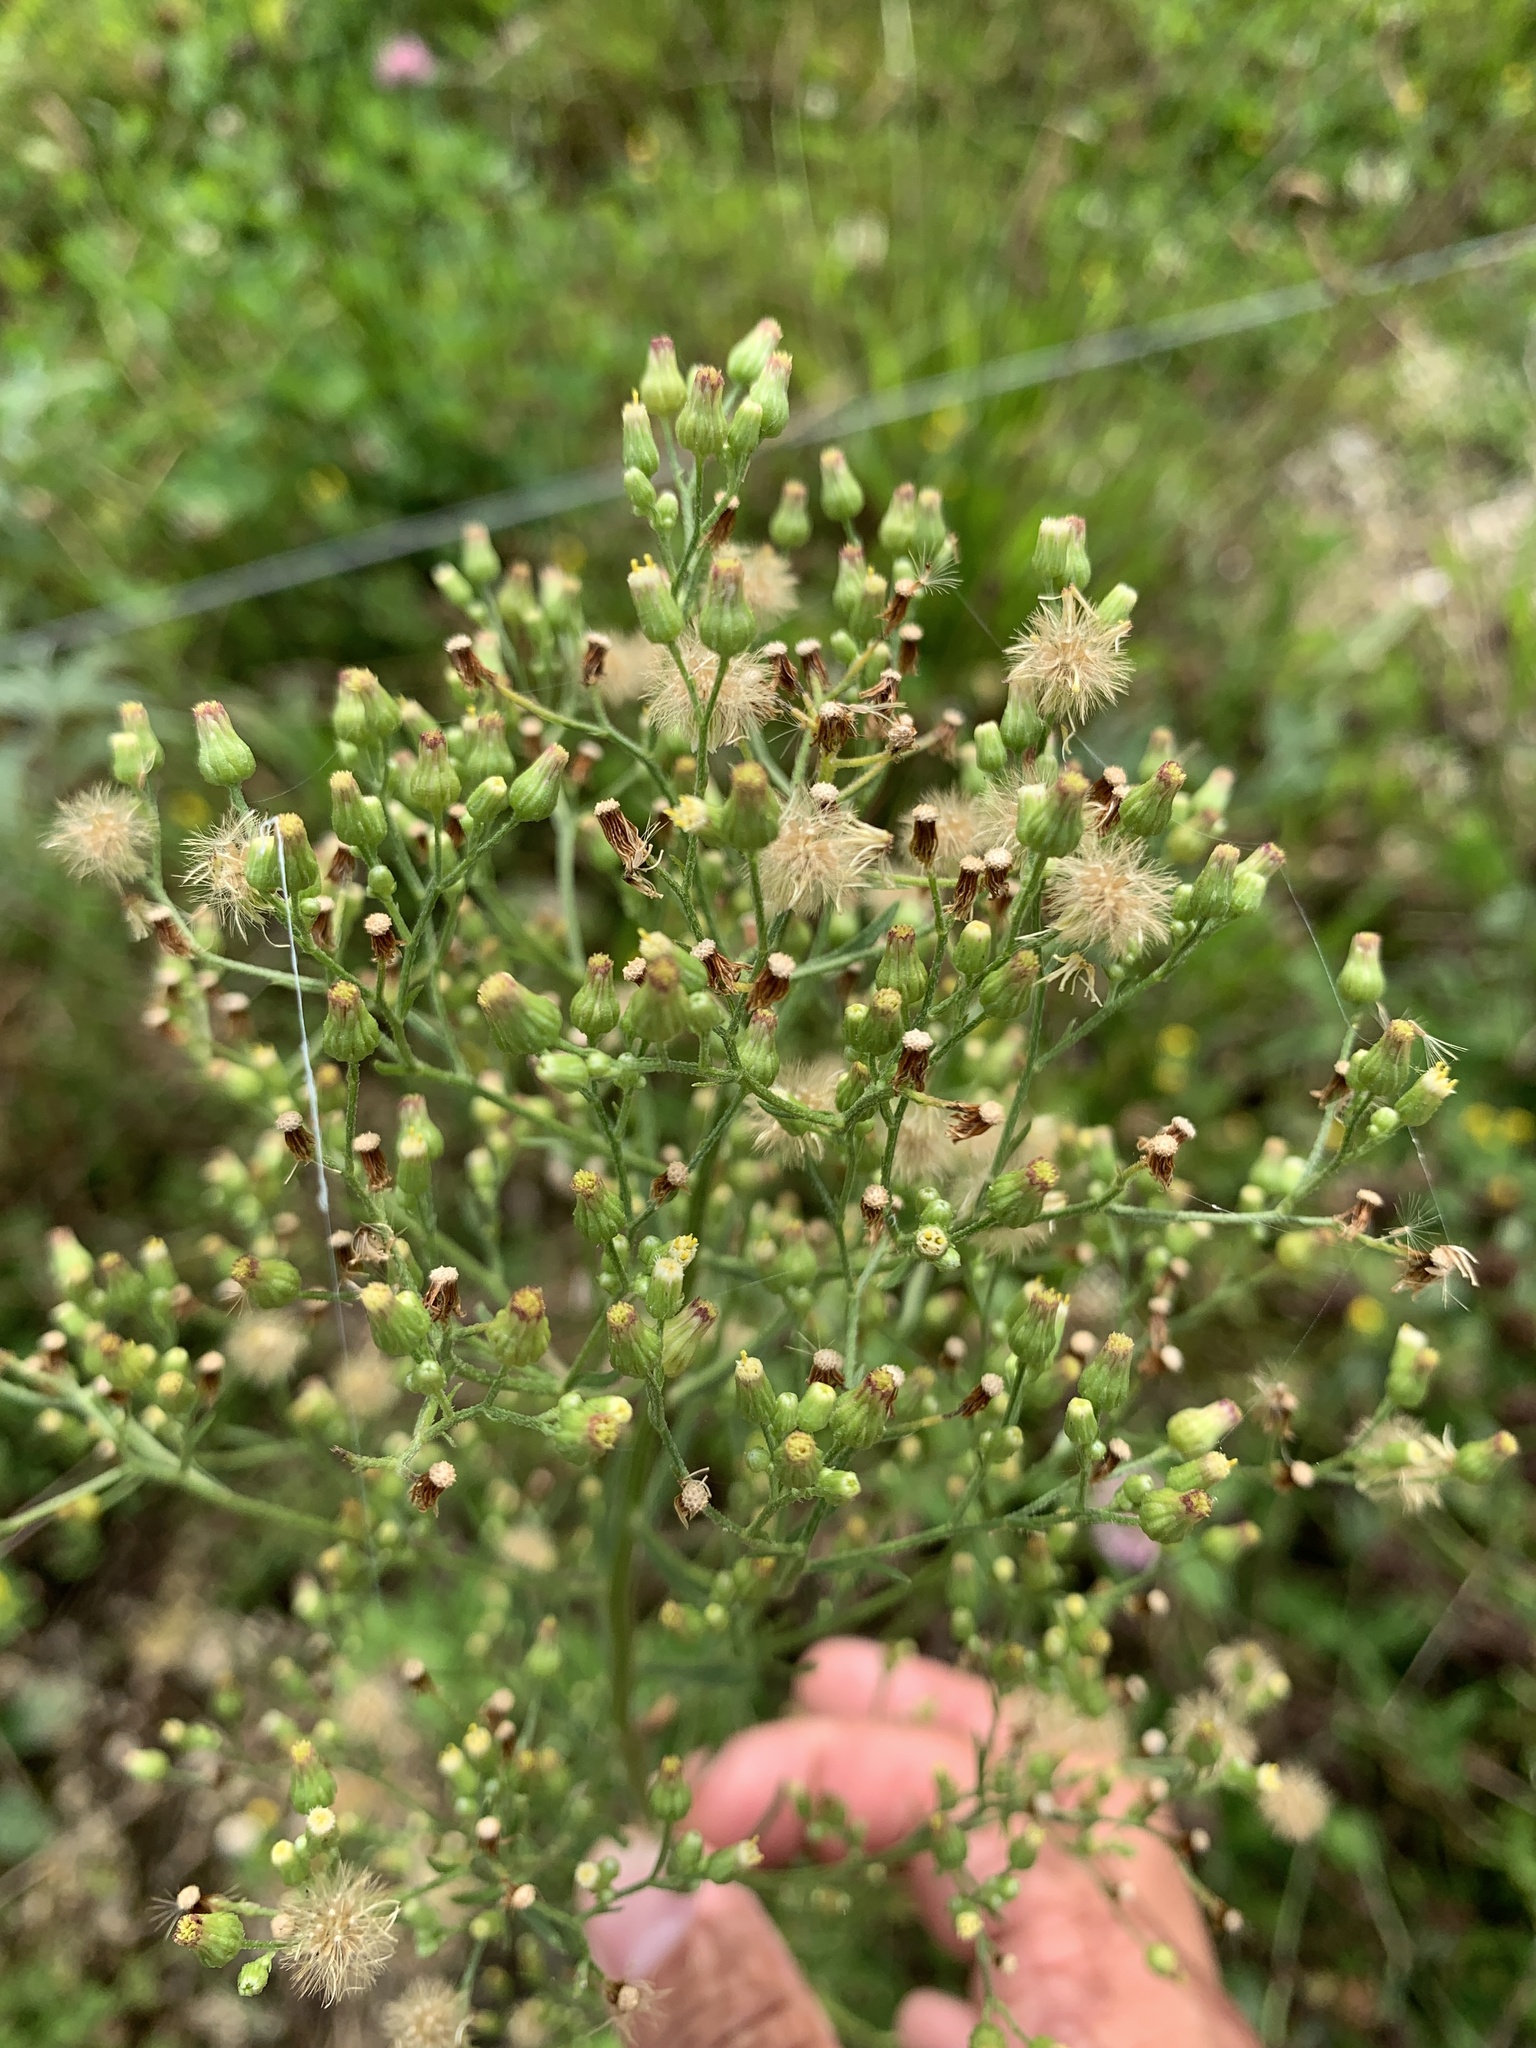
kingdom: Plantae
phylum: Tracheophyta
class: Magnoliopsida
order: Asterales
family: Asteraceae
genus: Erigeron
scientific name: Erigeron canadensis
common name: Canadian fleabane
